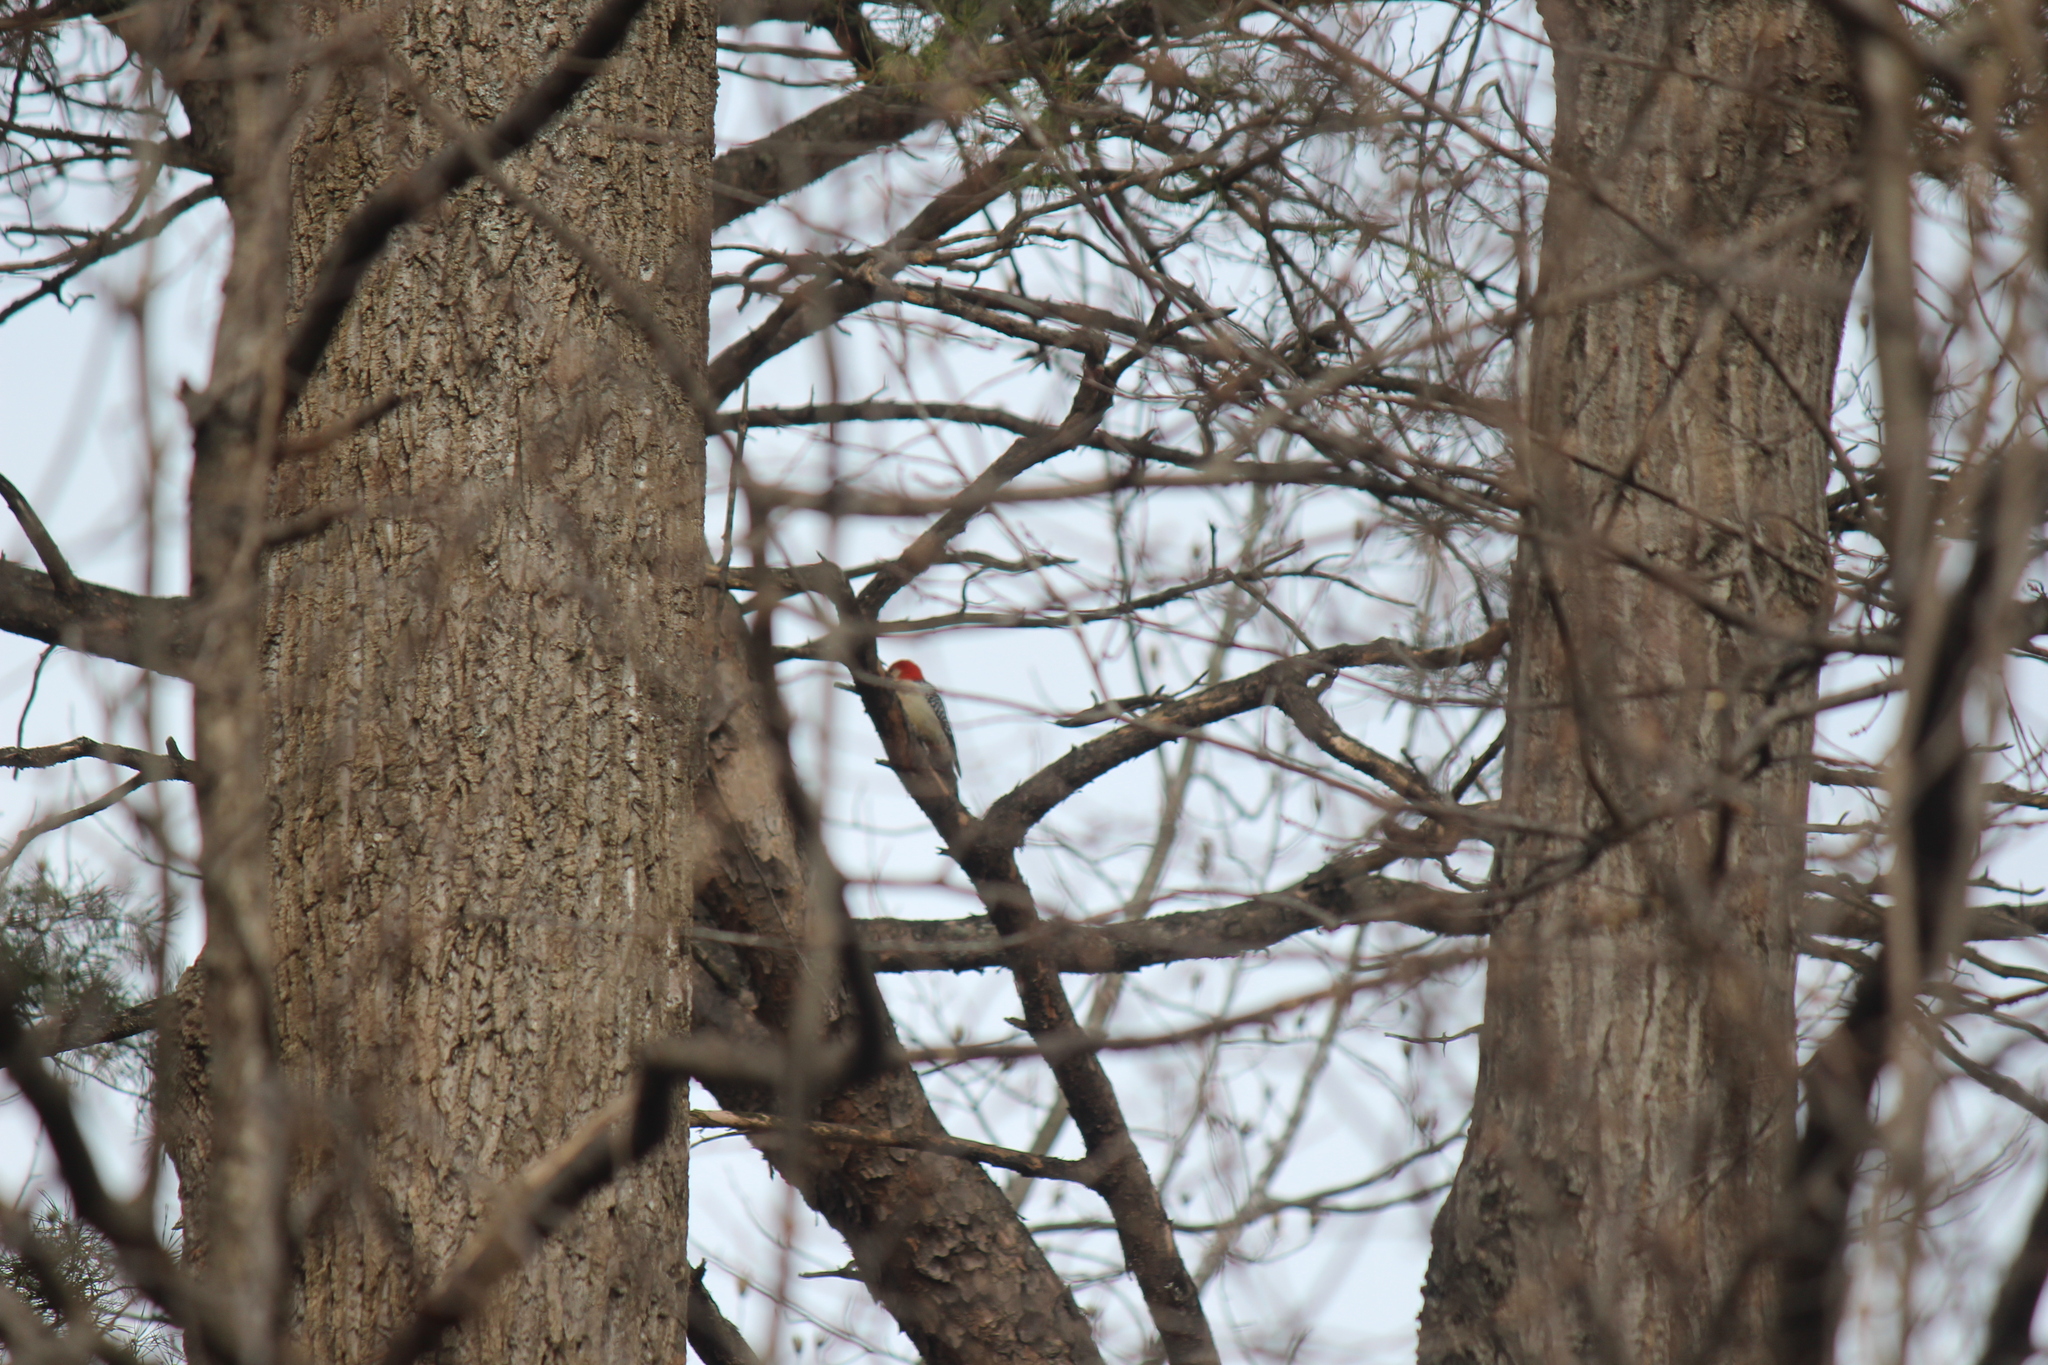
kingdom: Animalia
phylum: Chordata
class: Aves
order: Piciformes
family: Picidae
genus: Melanerpes
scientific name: Melanerpes carolinus
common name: Red-bellied woodpecker
